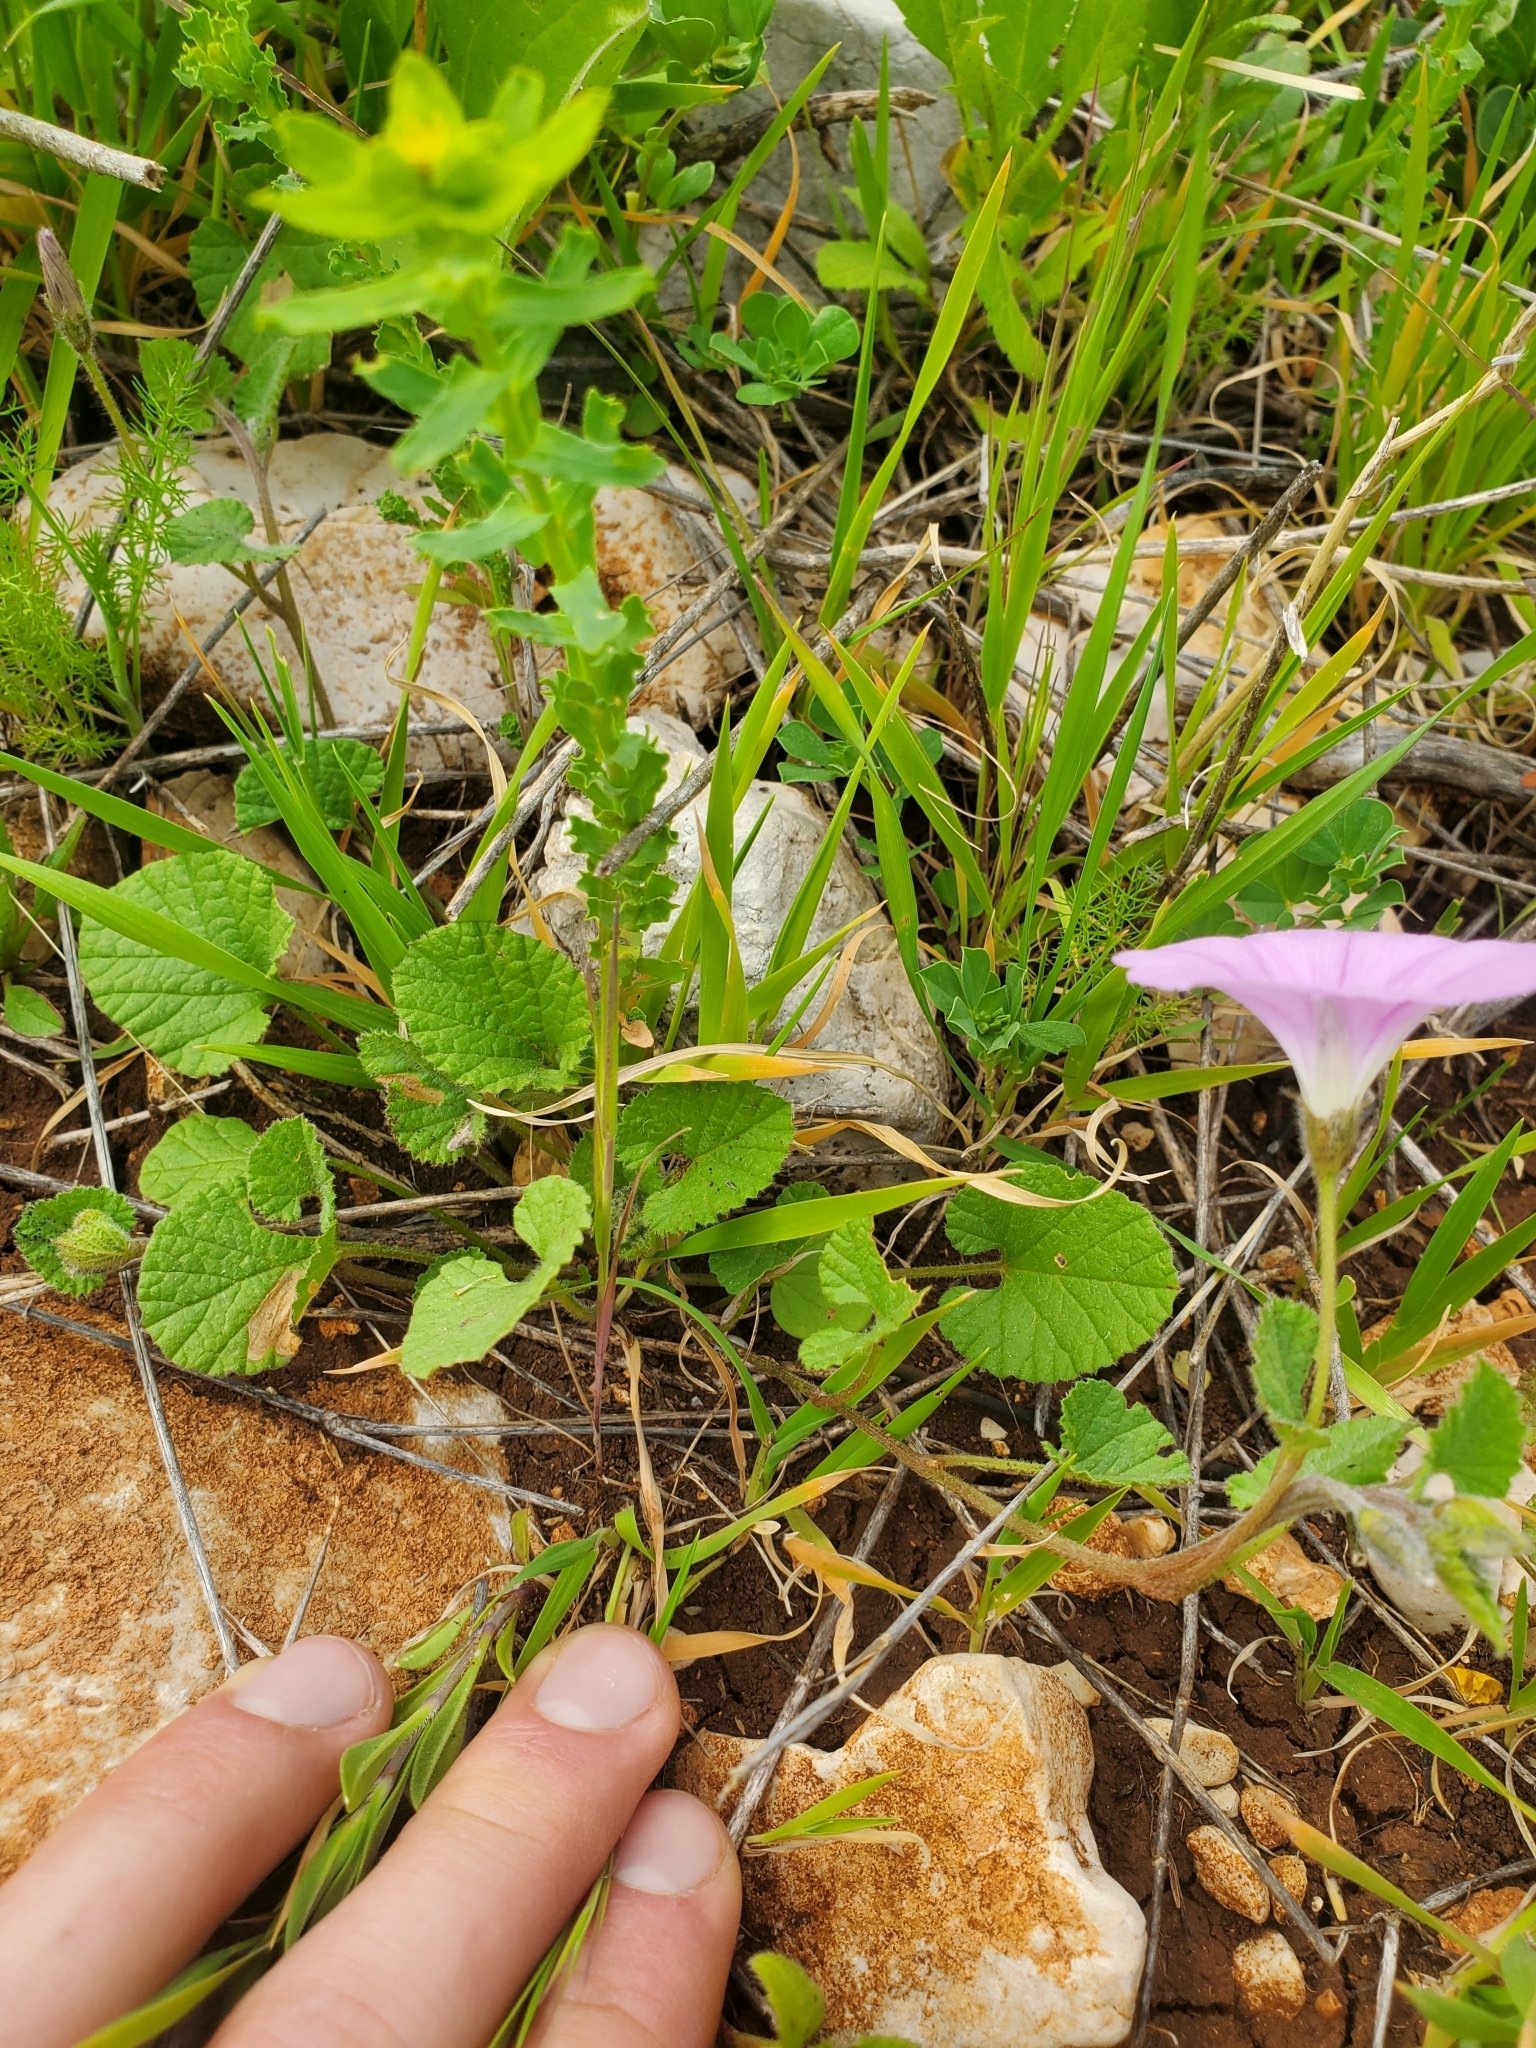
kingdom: Plantae
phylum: Tracheophyta
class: Magnoliopsida
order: Solanales
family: Convolvulaceae
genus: Convolvulus
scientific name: Convolvulus coelesyriacus
